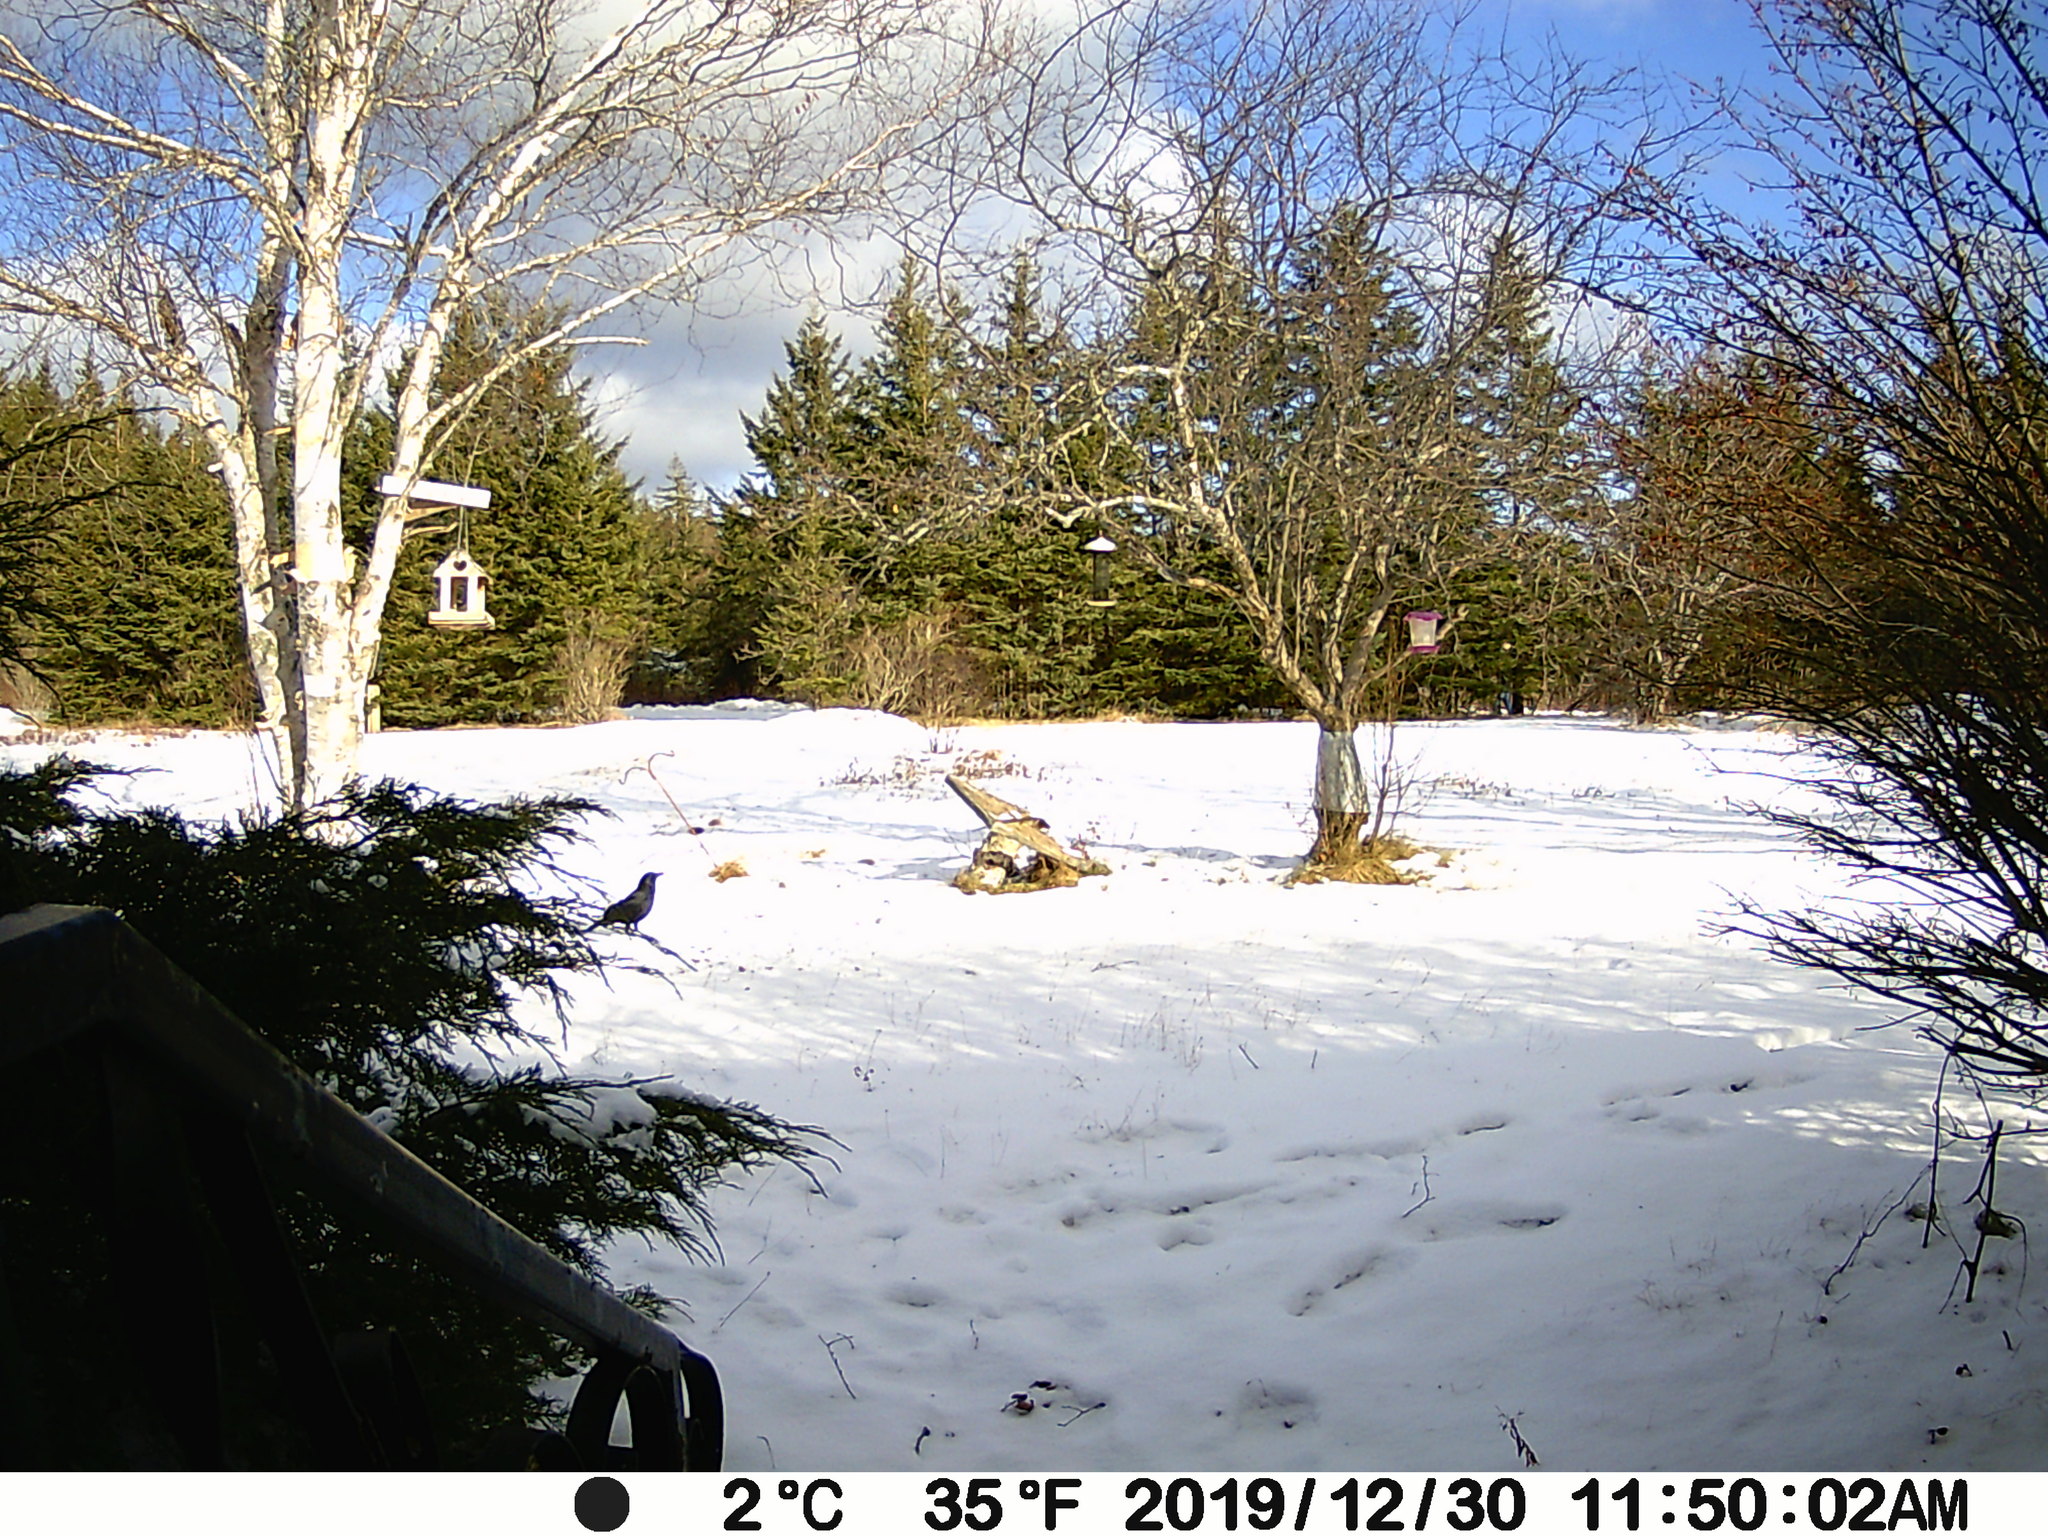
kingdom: Animalia
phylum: Chordata
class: Aves
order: Passeriformes
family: Corvidae
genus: Corvus
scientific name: Corvus brachyrhynchos
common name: American crow
